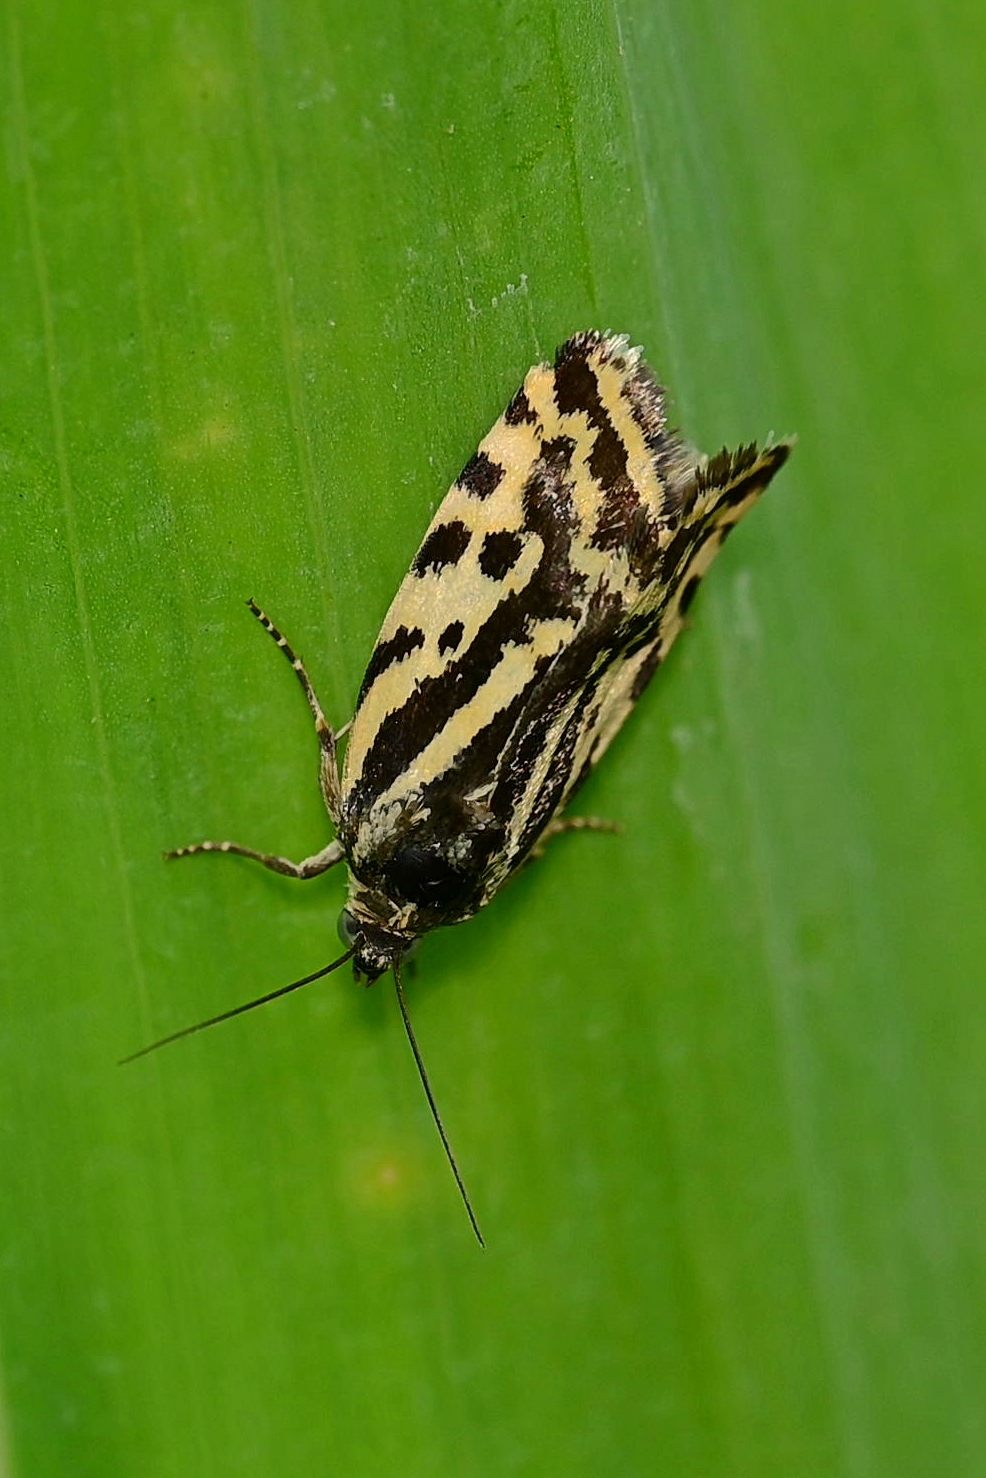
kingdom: Animalia
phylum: Arthropoda
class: Insecta
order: Lepidoptera
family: Noctuidae
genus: Acontia
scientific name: Acontia trabealis
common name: Spotted sulphur
